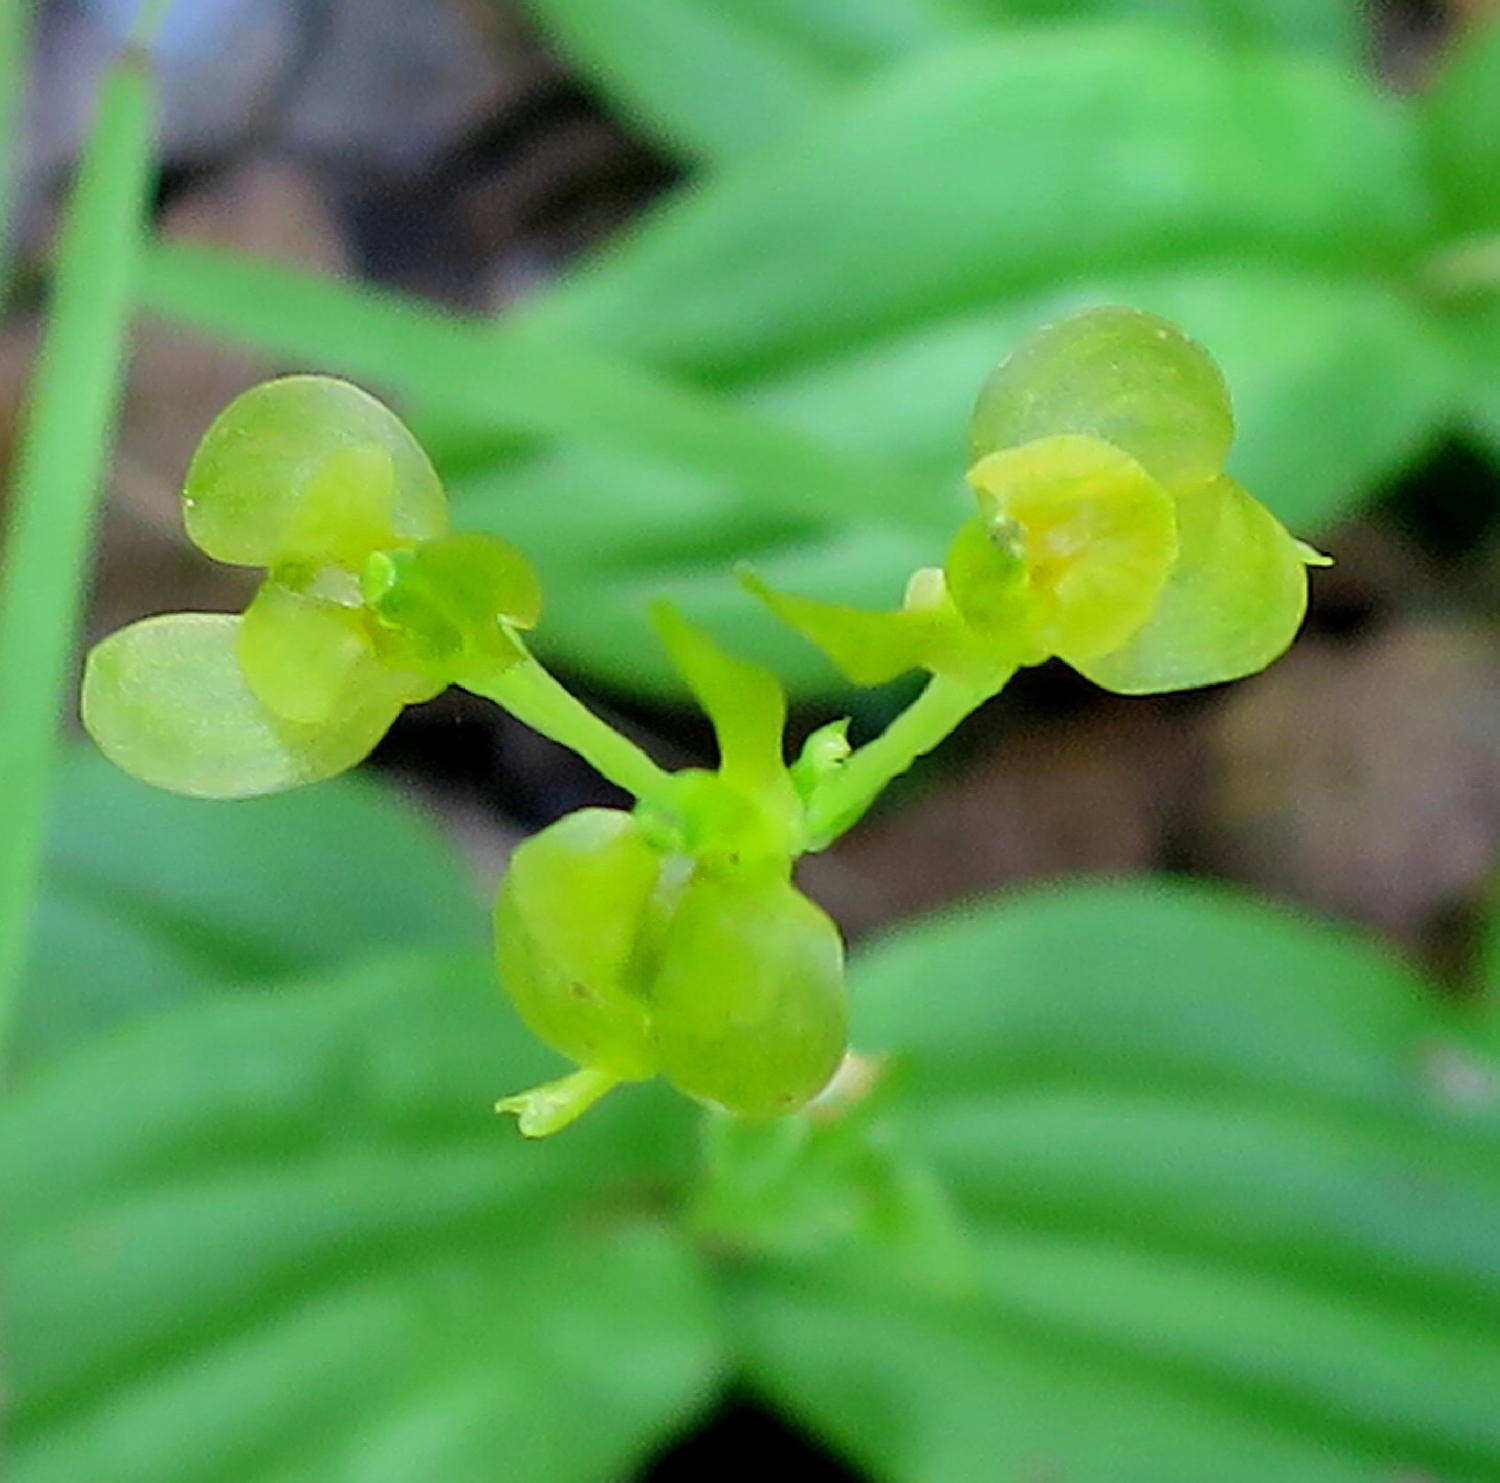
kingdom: Plantae
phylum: Tracheophyta
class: Liliopsida
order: Asparagales
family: Orchidaceae
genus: Liparis
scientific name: Liparis remota
